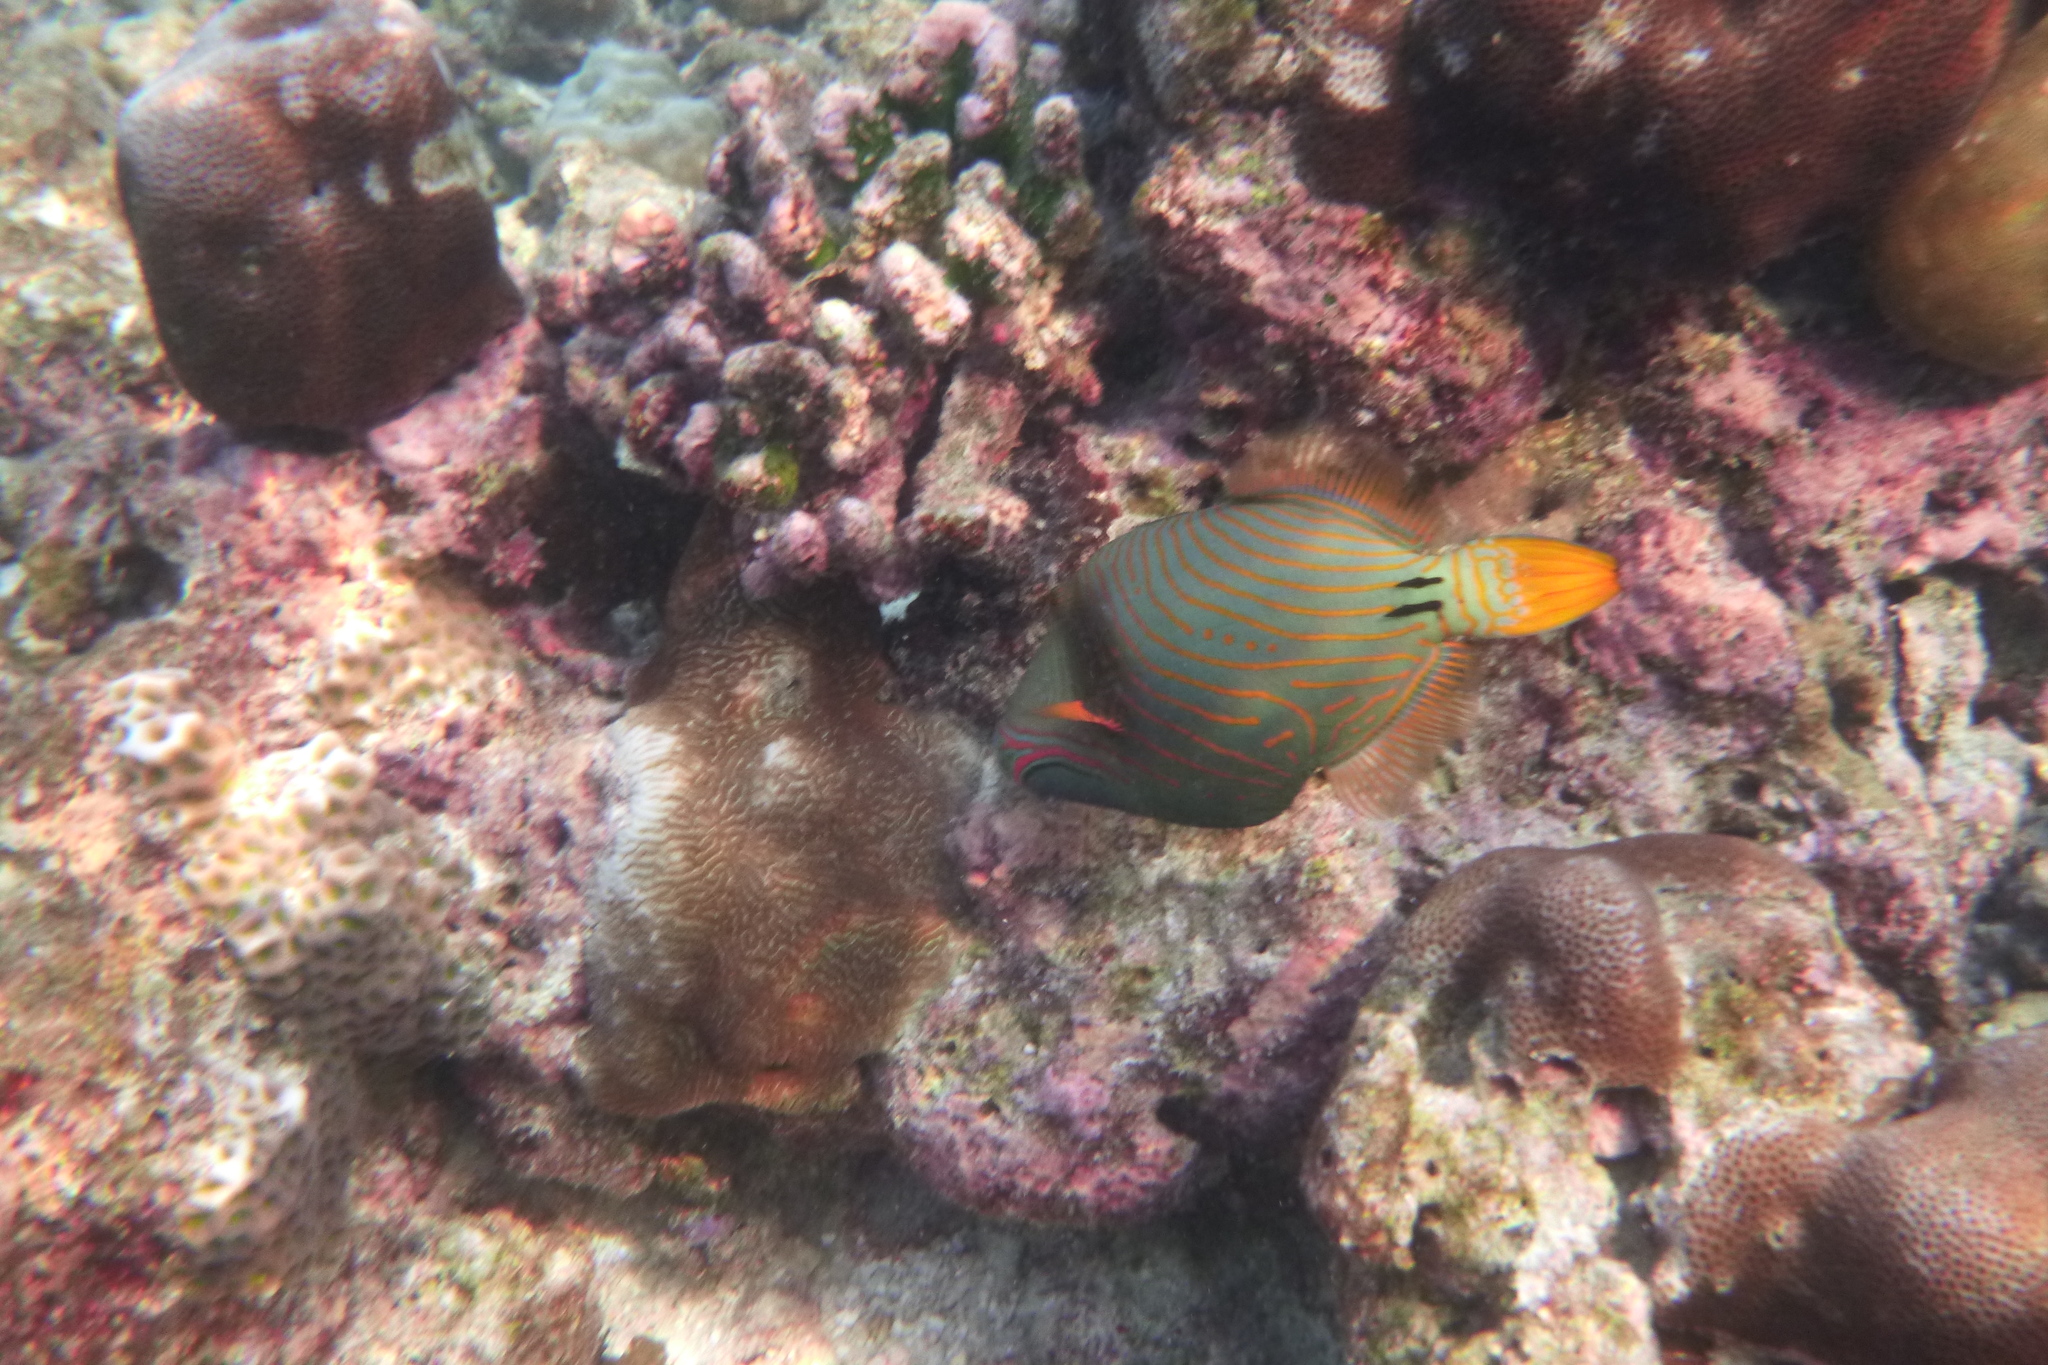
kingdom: Animalia
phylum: Chordata
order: Tetraodontiformes
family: Balistidae
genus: Balistapus
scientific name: Balistapus undulatus
